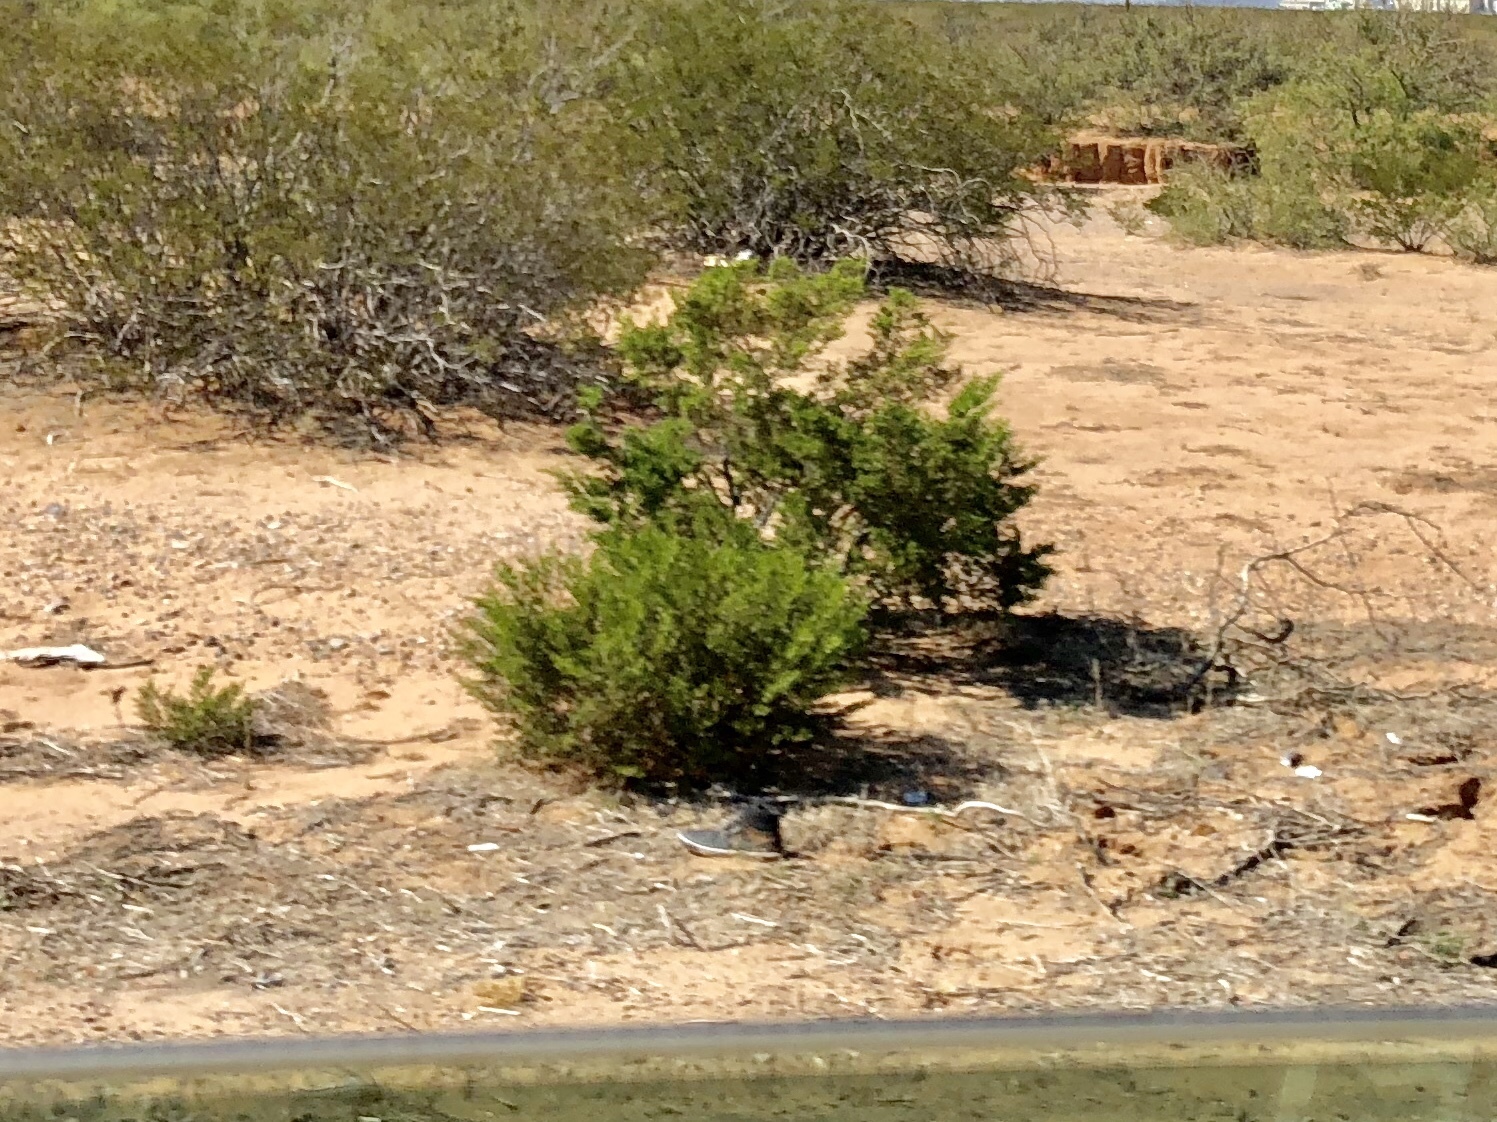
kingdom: Plantae
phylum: Tracheophyta
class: Magnoliopsida
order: Zygophyllales
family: Zygophyllaceae
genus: Larrea
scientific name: Larrea tridentata
